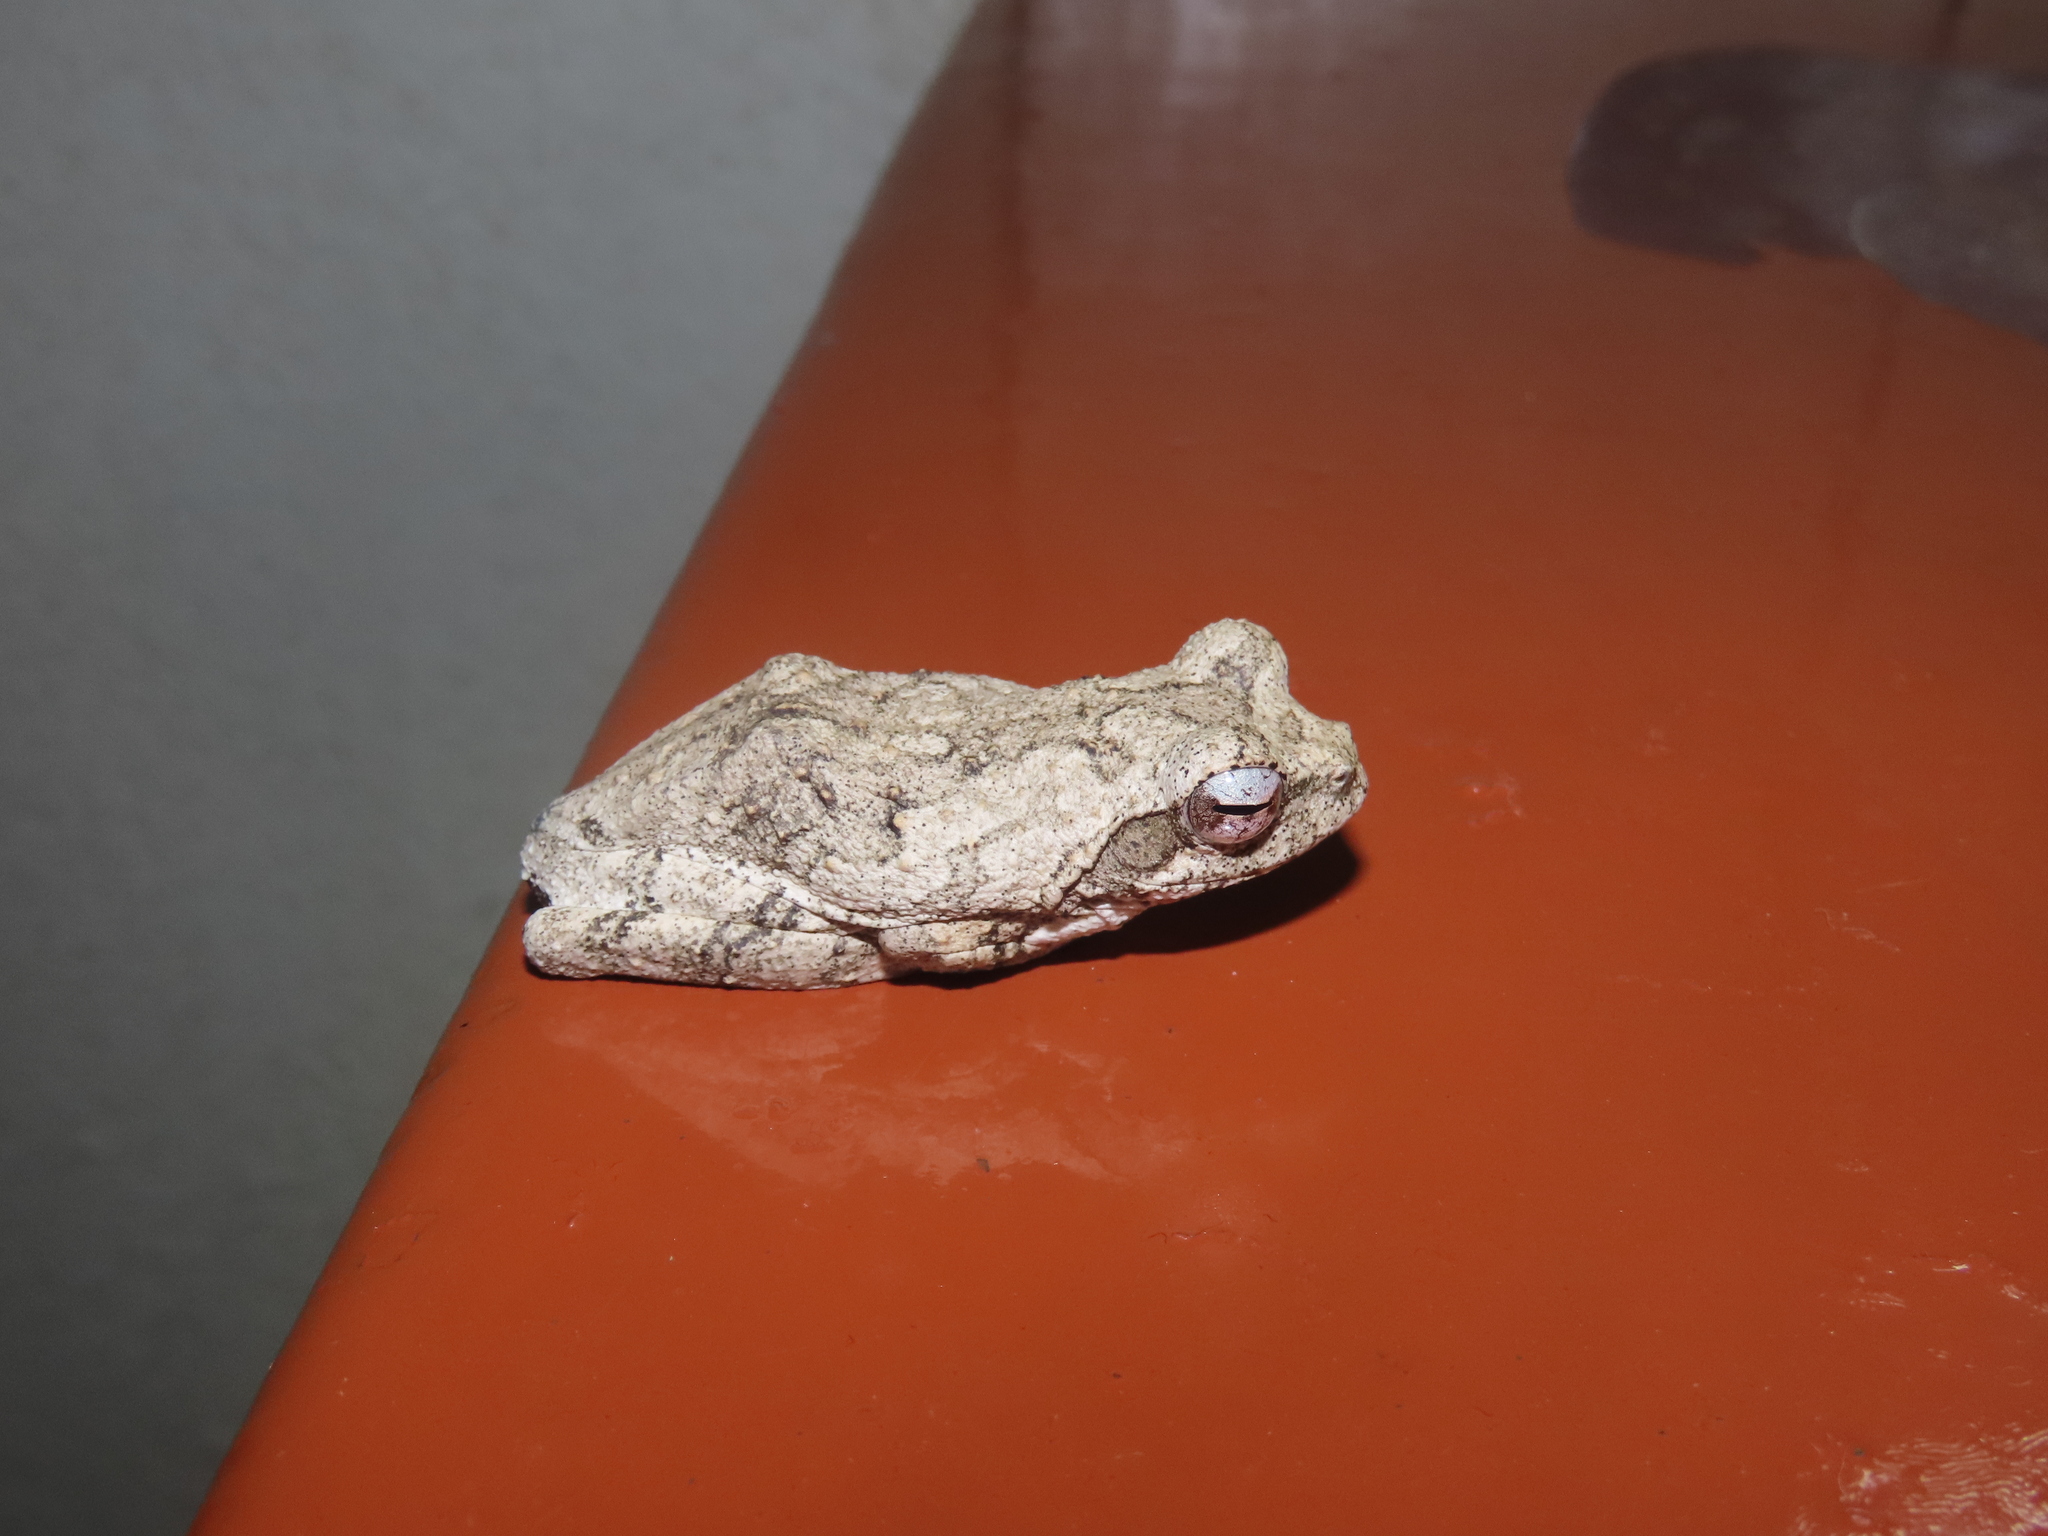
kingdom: Animalia
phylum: Chordata
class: Amphibia
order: Anura
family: Rhacophoridae
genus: Chiromantis
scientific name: Chiromantis xerampelina
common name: African gray treefrog
